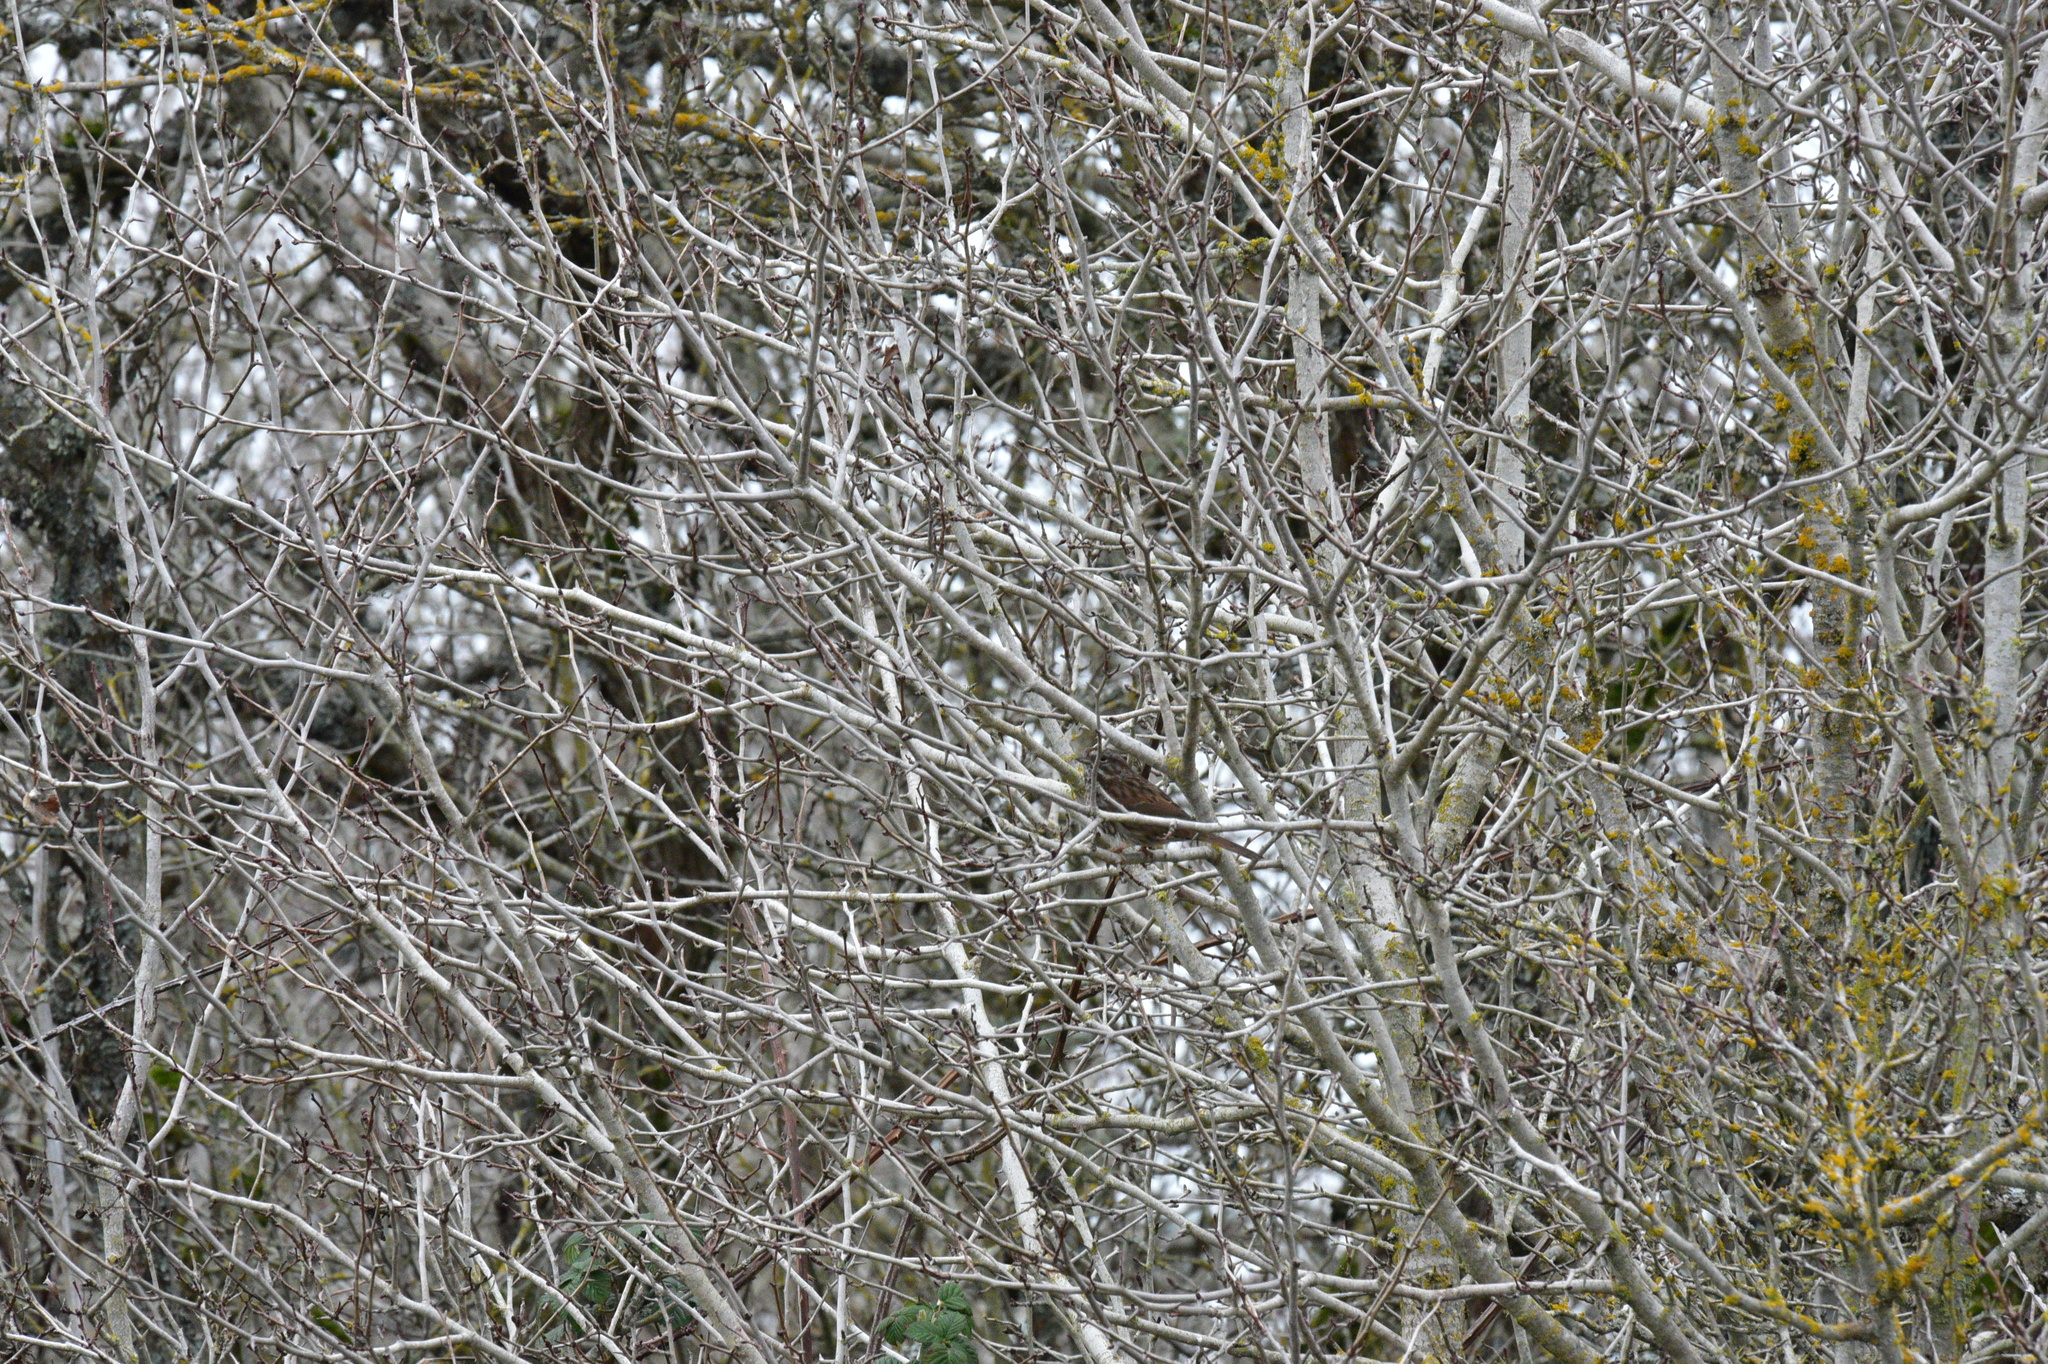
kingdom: Animalia
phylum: Chordata
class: Aves
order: Passeriformes
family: Passerellidae
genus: Melospiza
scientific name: Melospiza melodia
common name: Song sparrow
